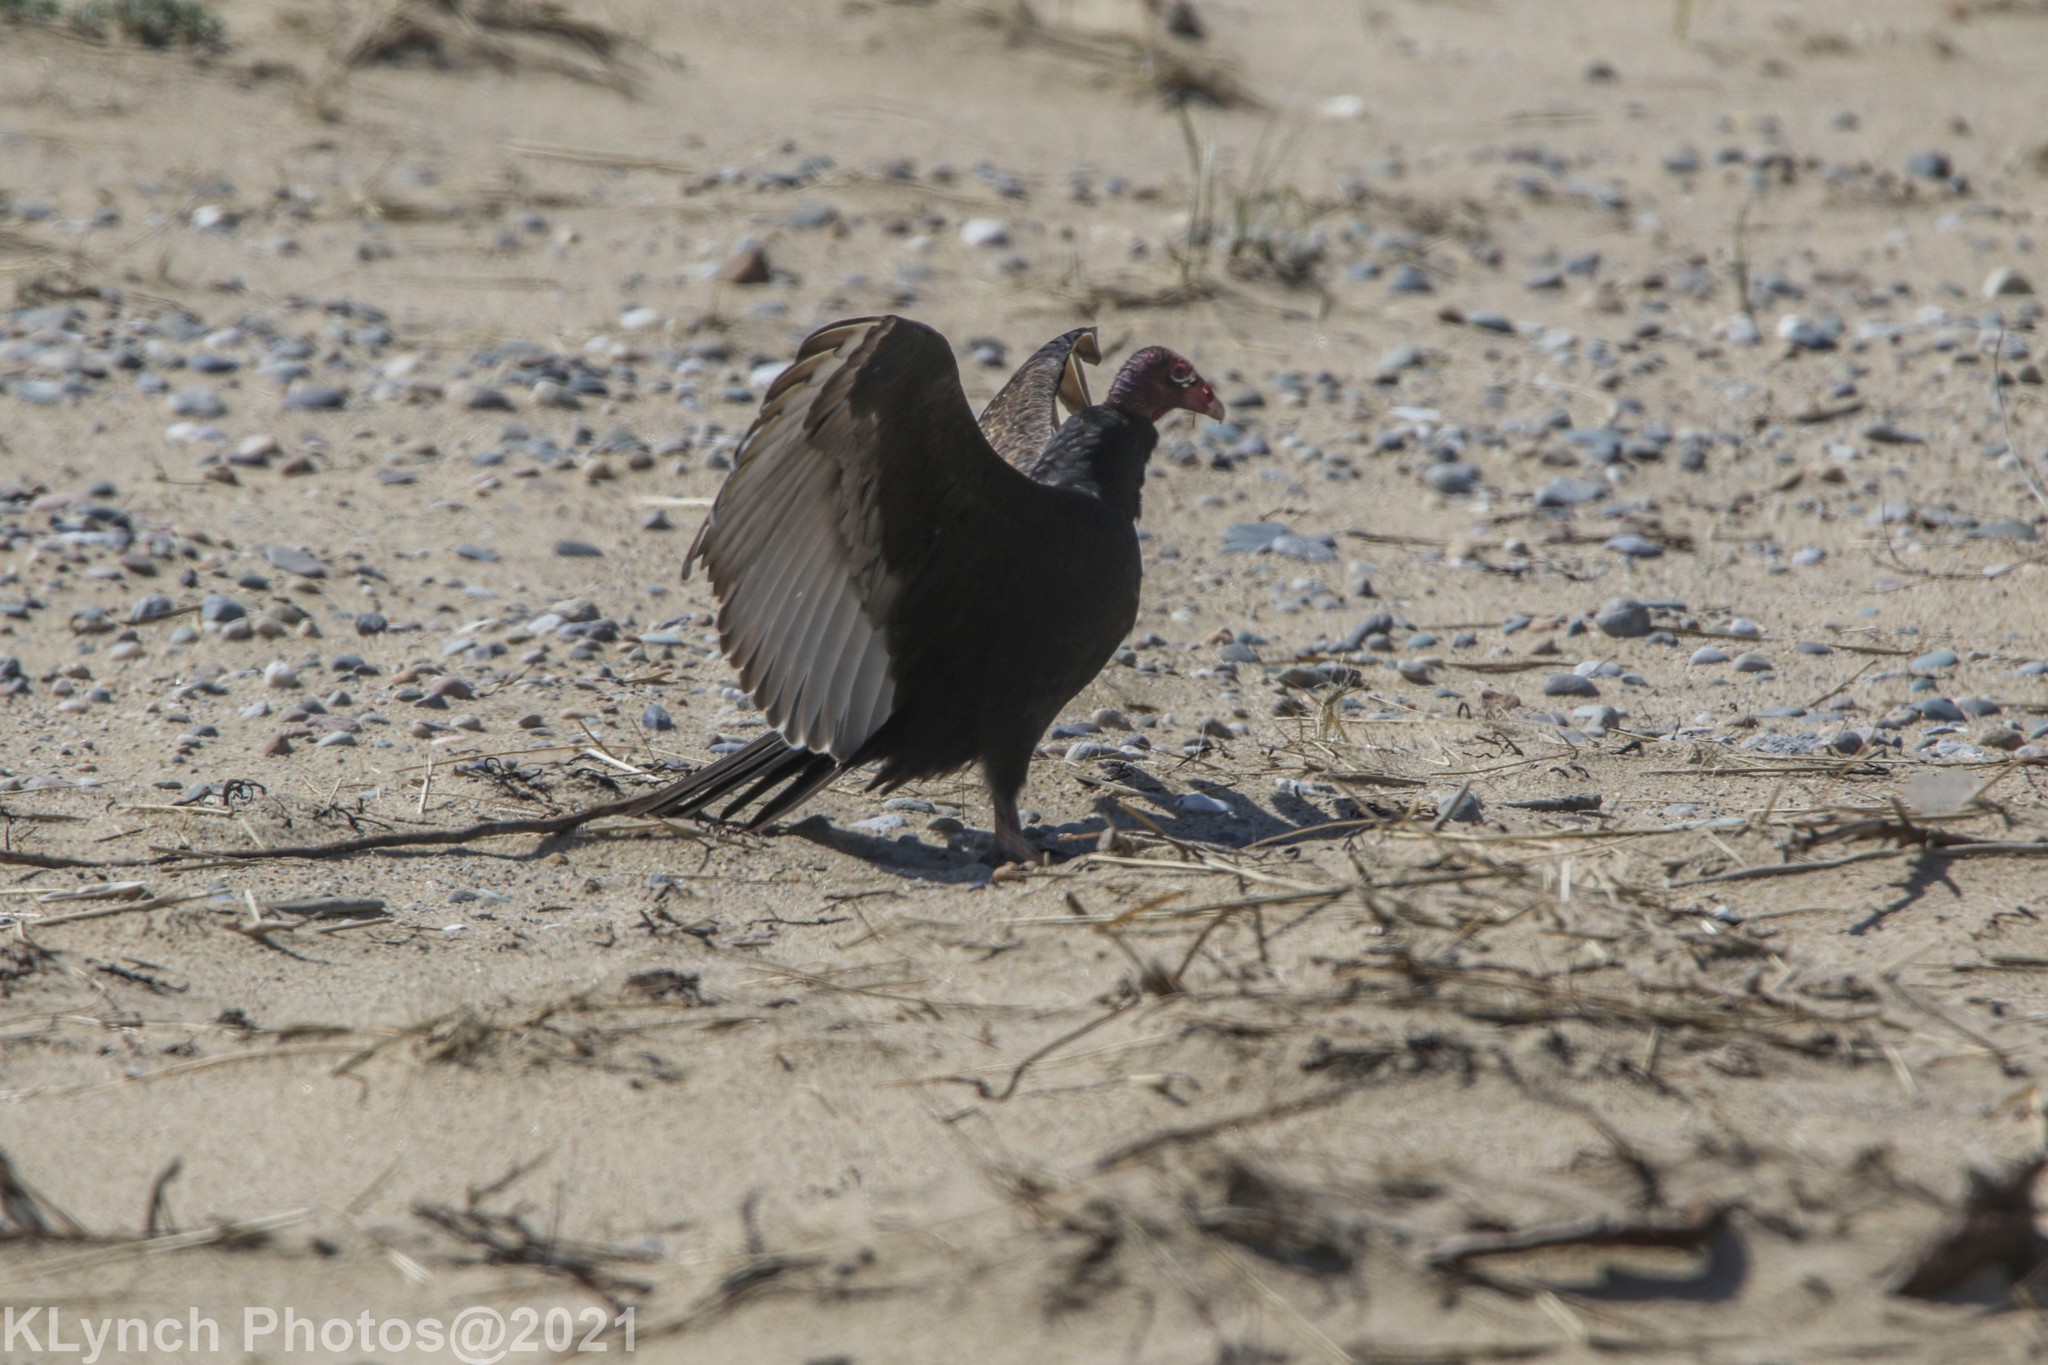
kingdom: Animalia
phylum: Chordata
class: Aves
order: Accipitriformes
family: Cathartidae
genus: Cathartes
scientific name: Cathartes aura
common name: Turkey vulture
